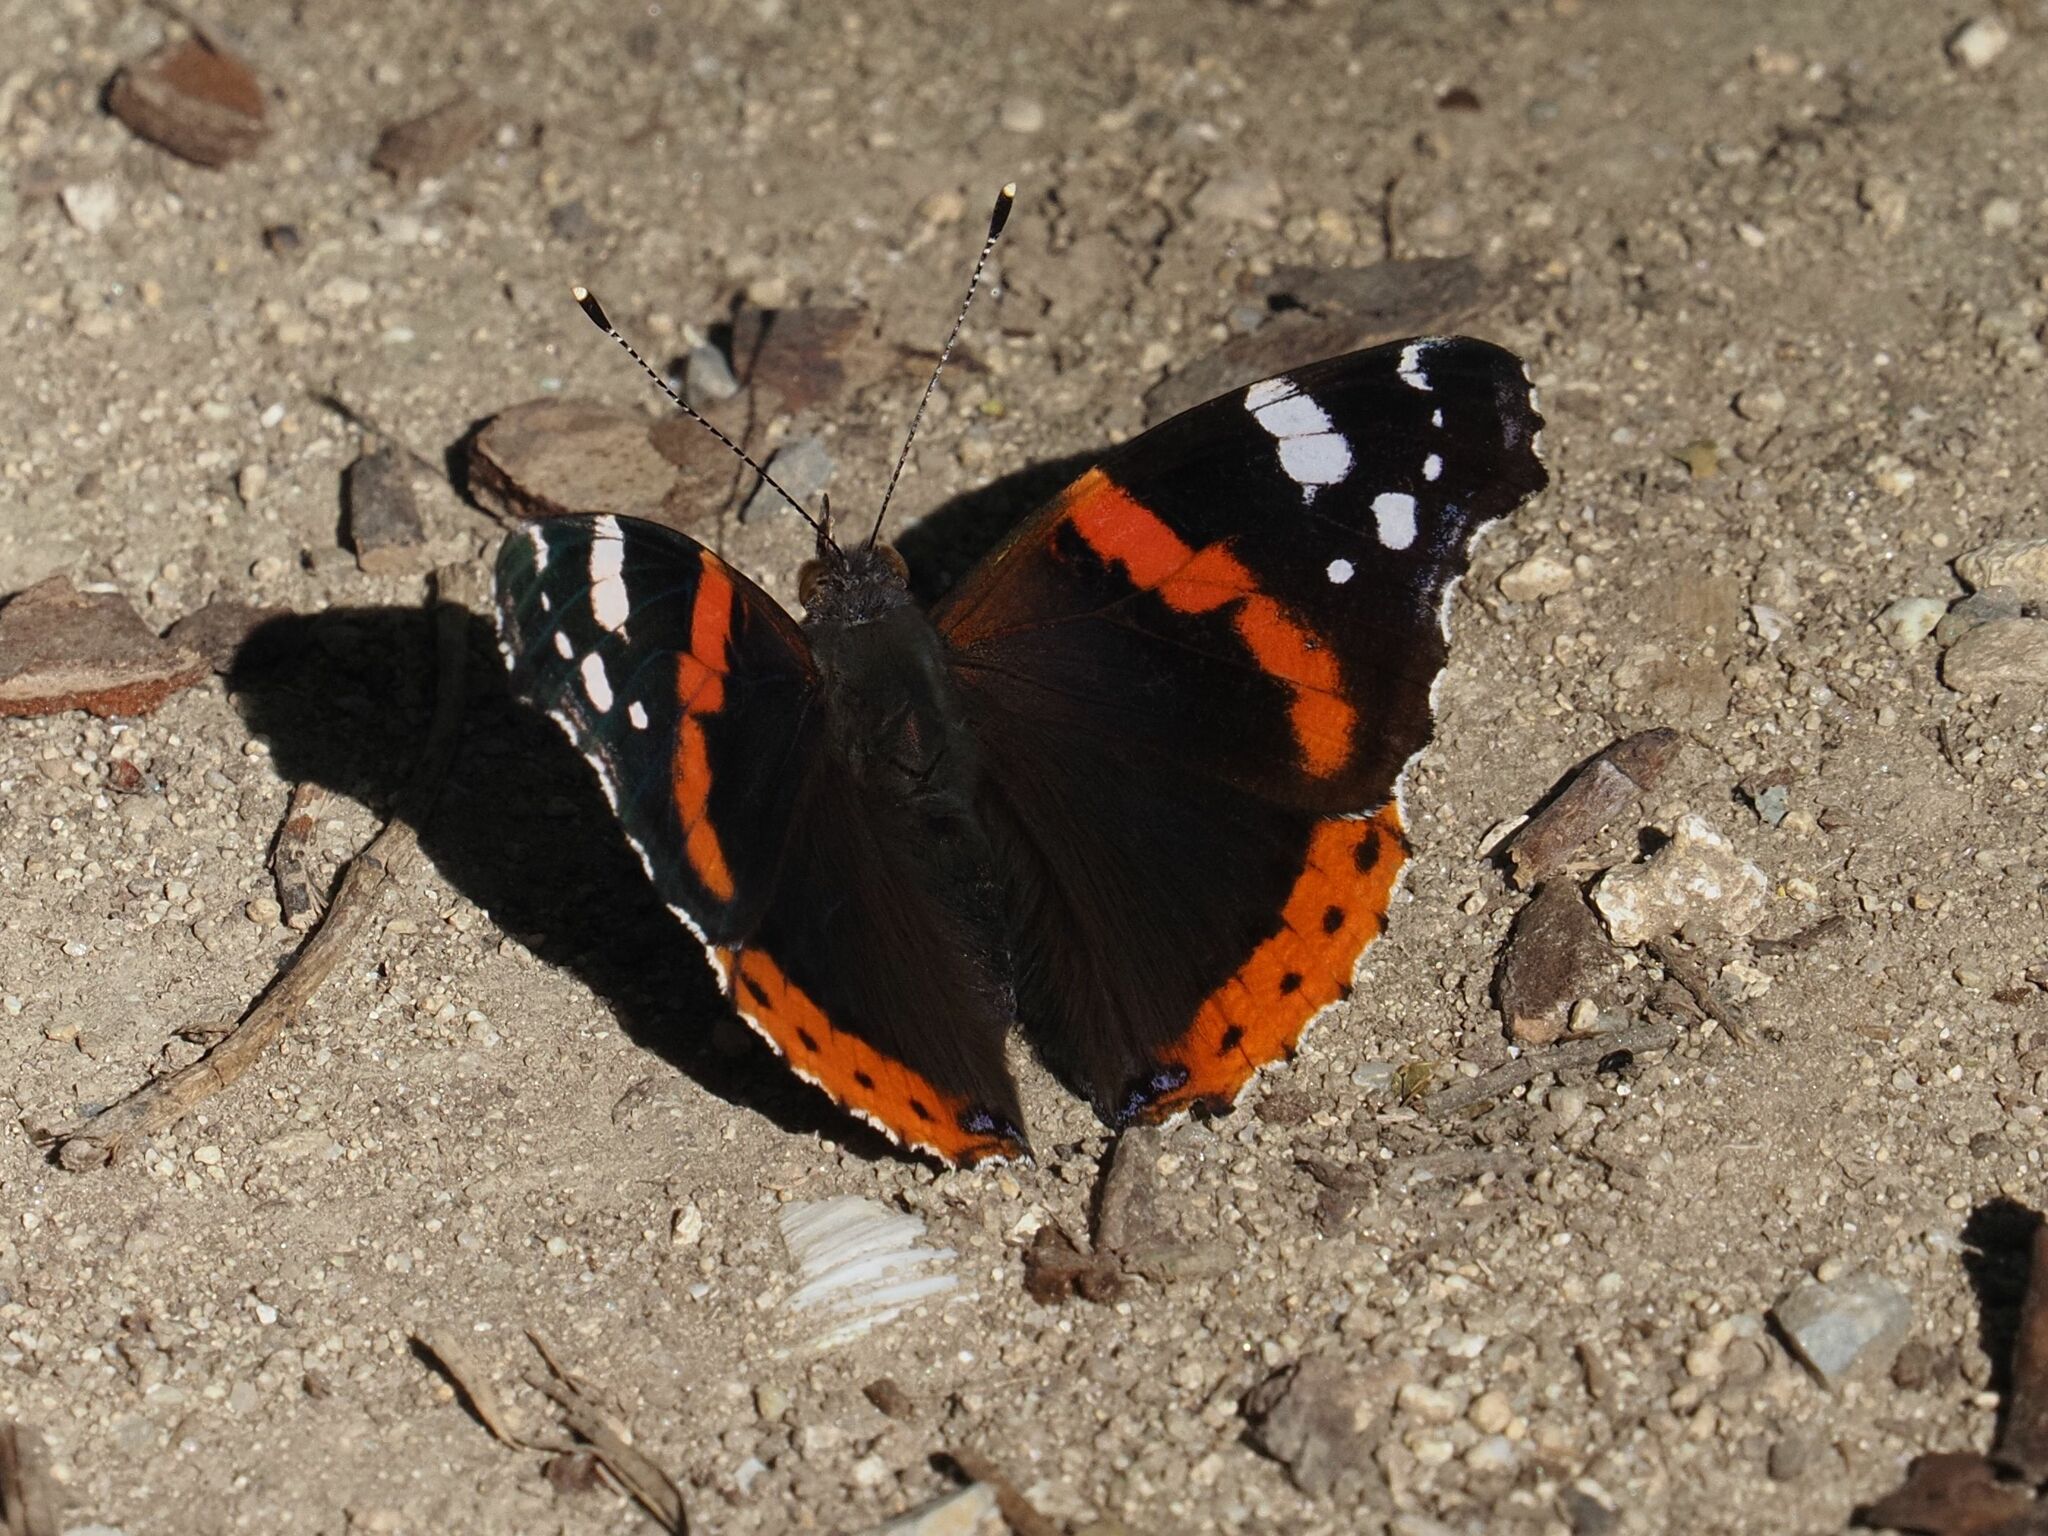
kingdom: Animalia
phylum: Arthropoda
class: Insecta
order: Lepidoptera
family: Nymphalidae
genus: Vanessa
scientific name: Vanessa atalanta
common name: Red admiral
